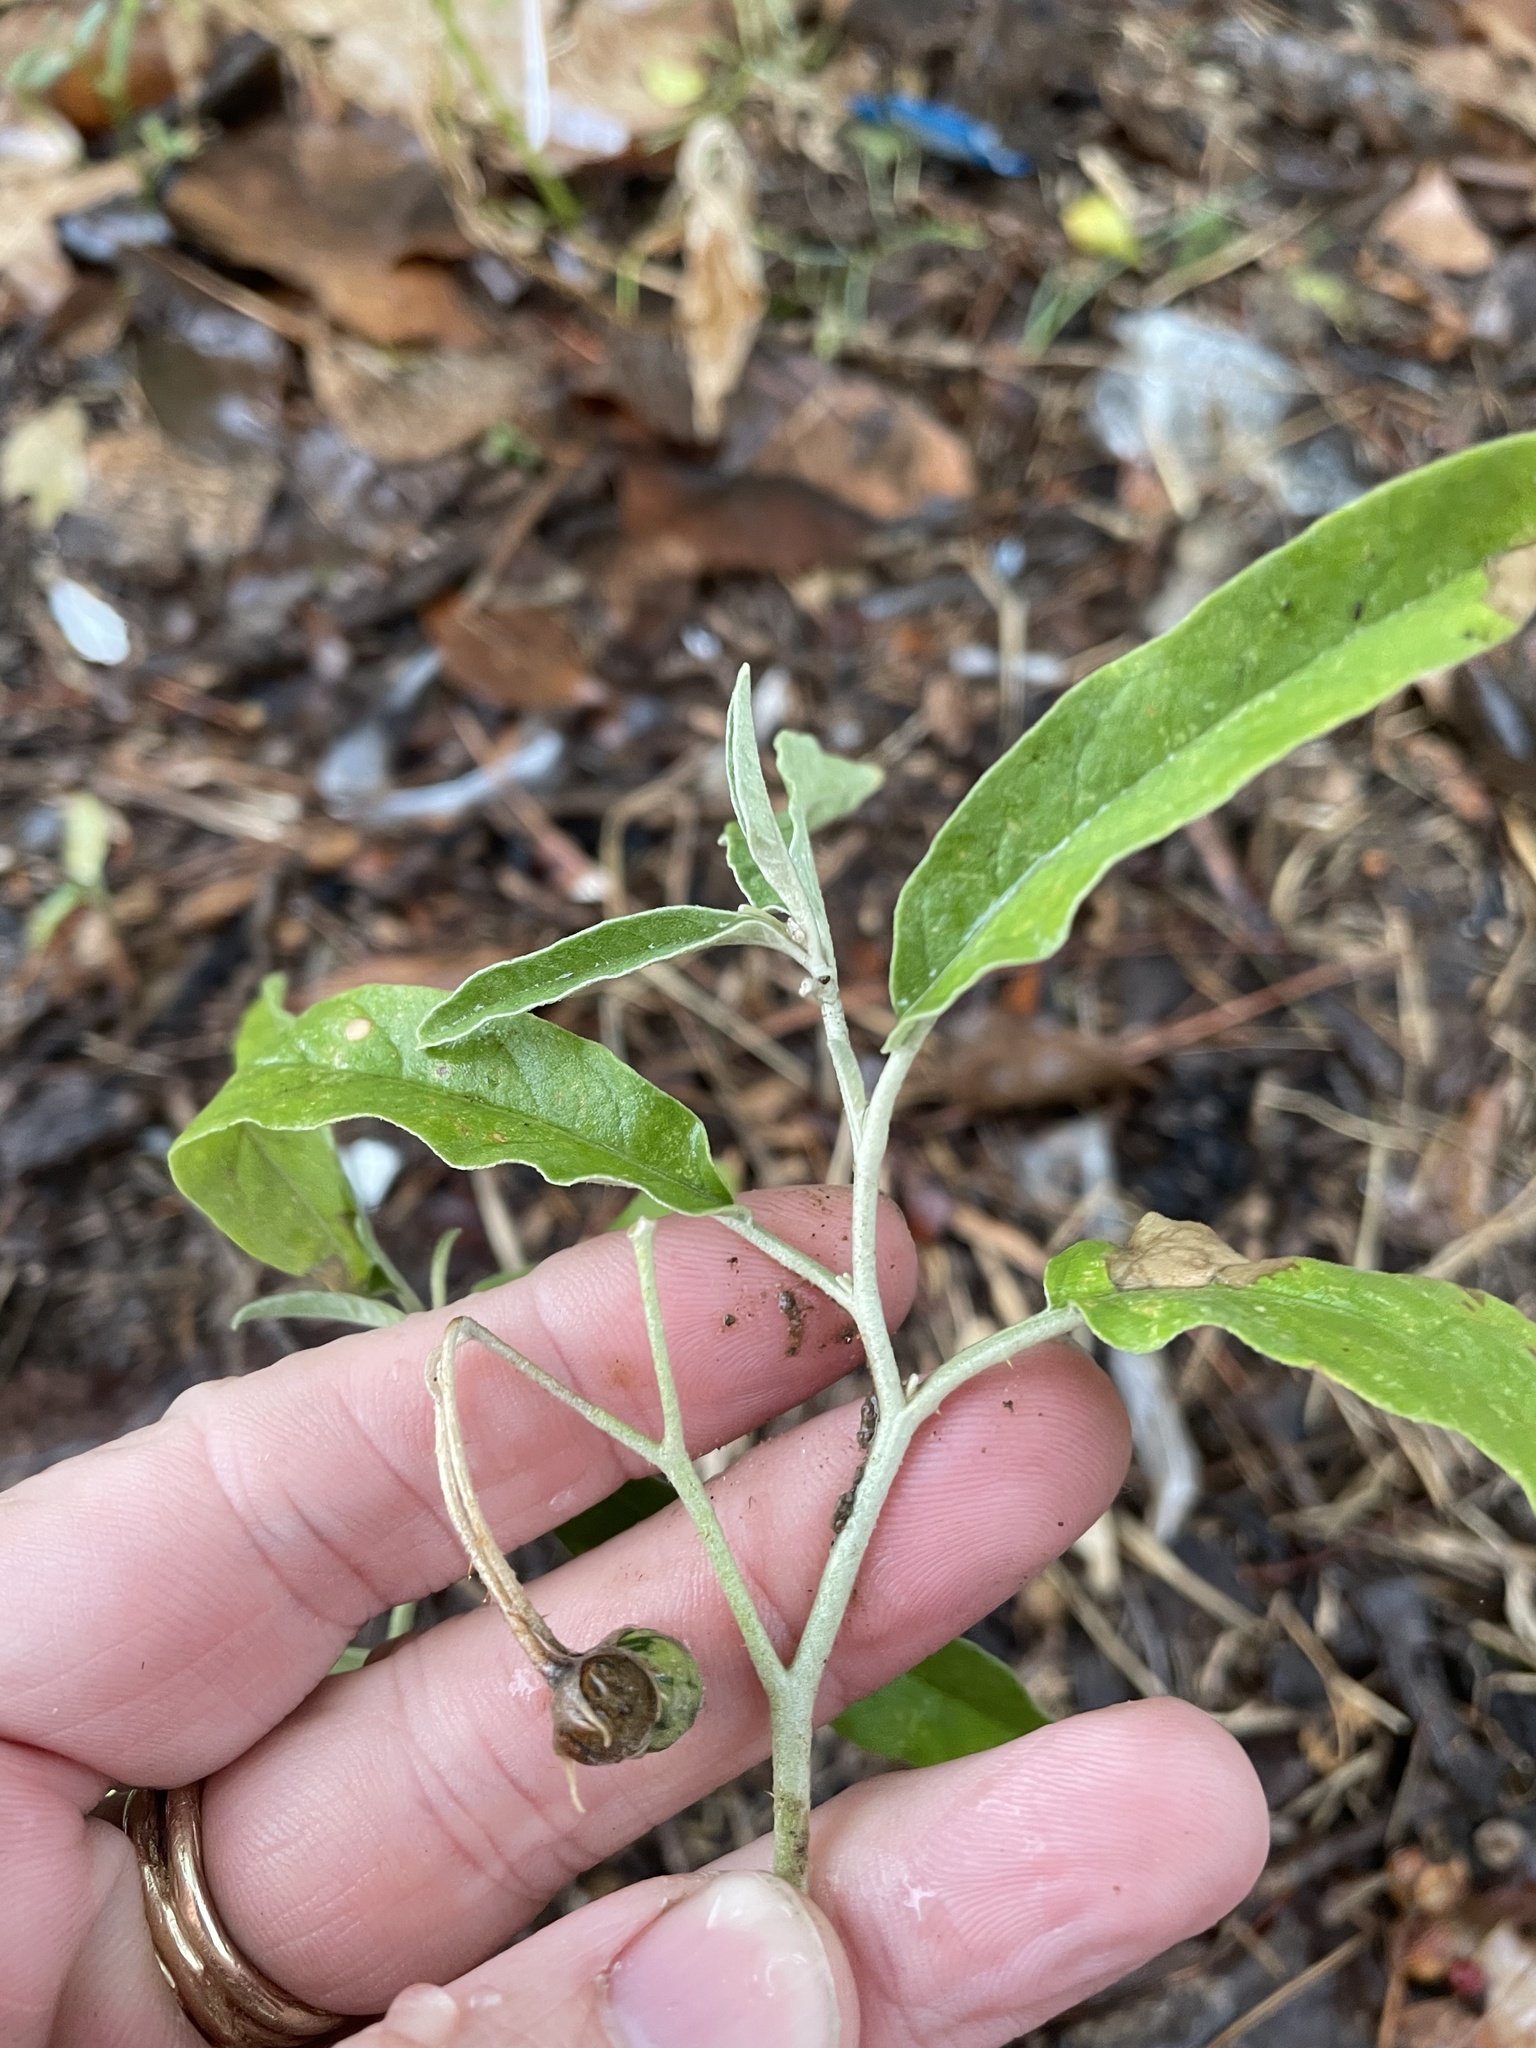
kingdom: Plantae
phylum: Tracheophyta
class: Magnoliopsida
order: Solanales
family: Solanaceae
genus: Solanum
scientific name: Solanum elaeagnifolium
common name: Silverleaf nightshade
